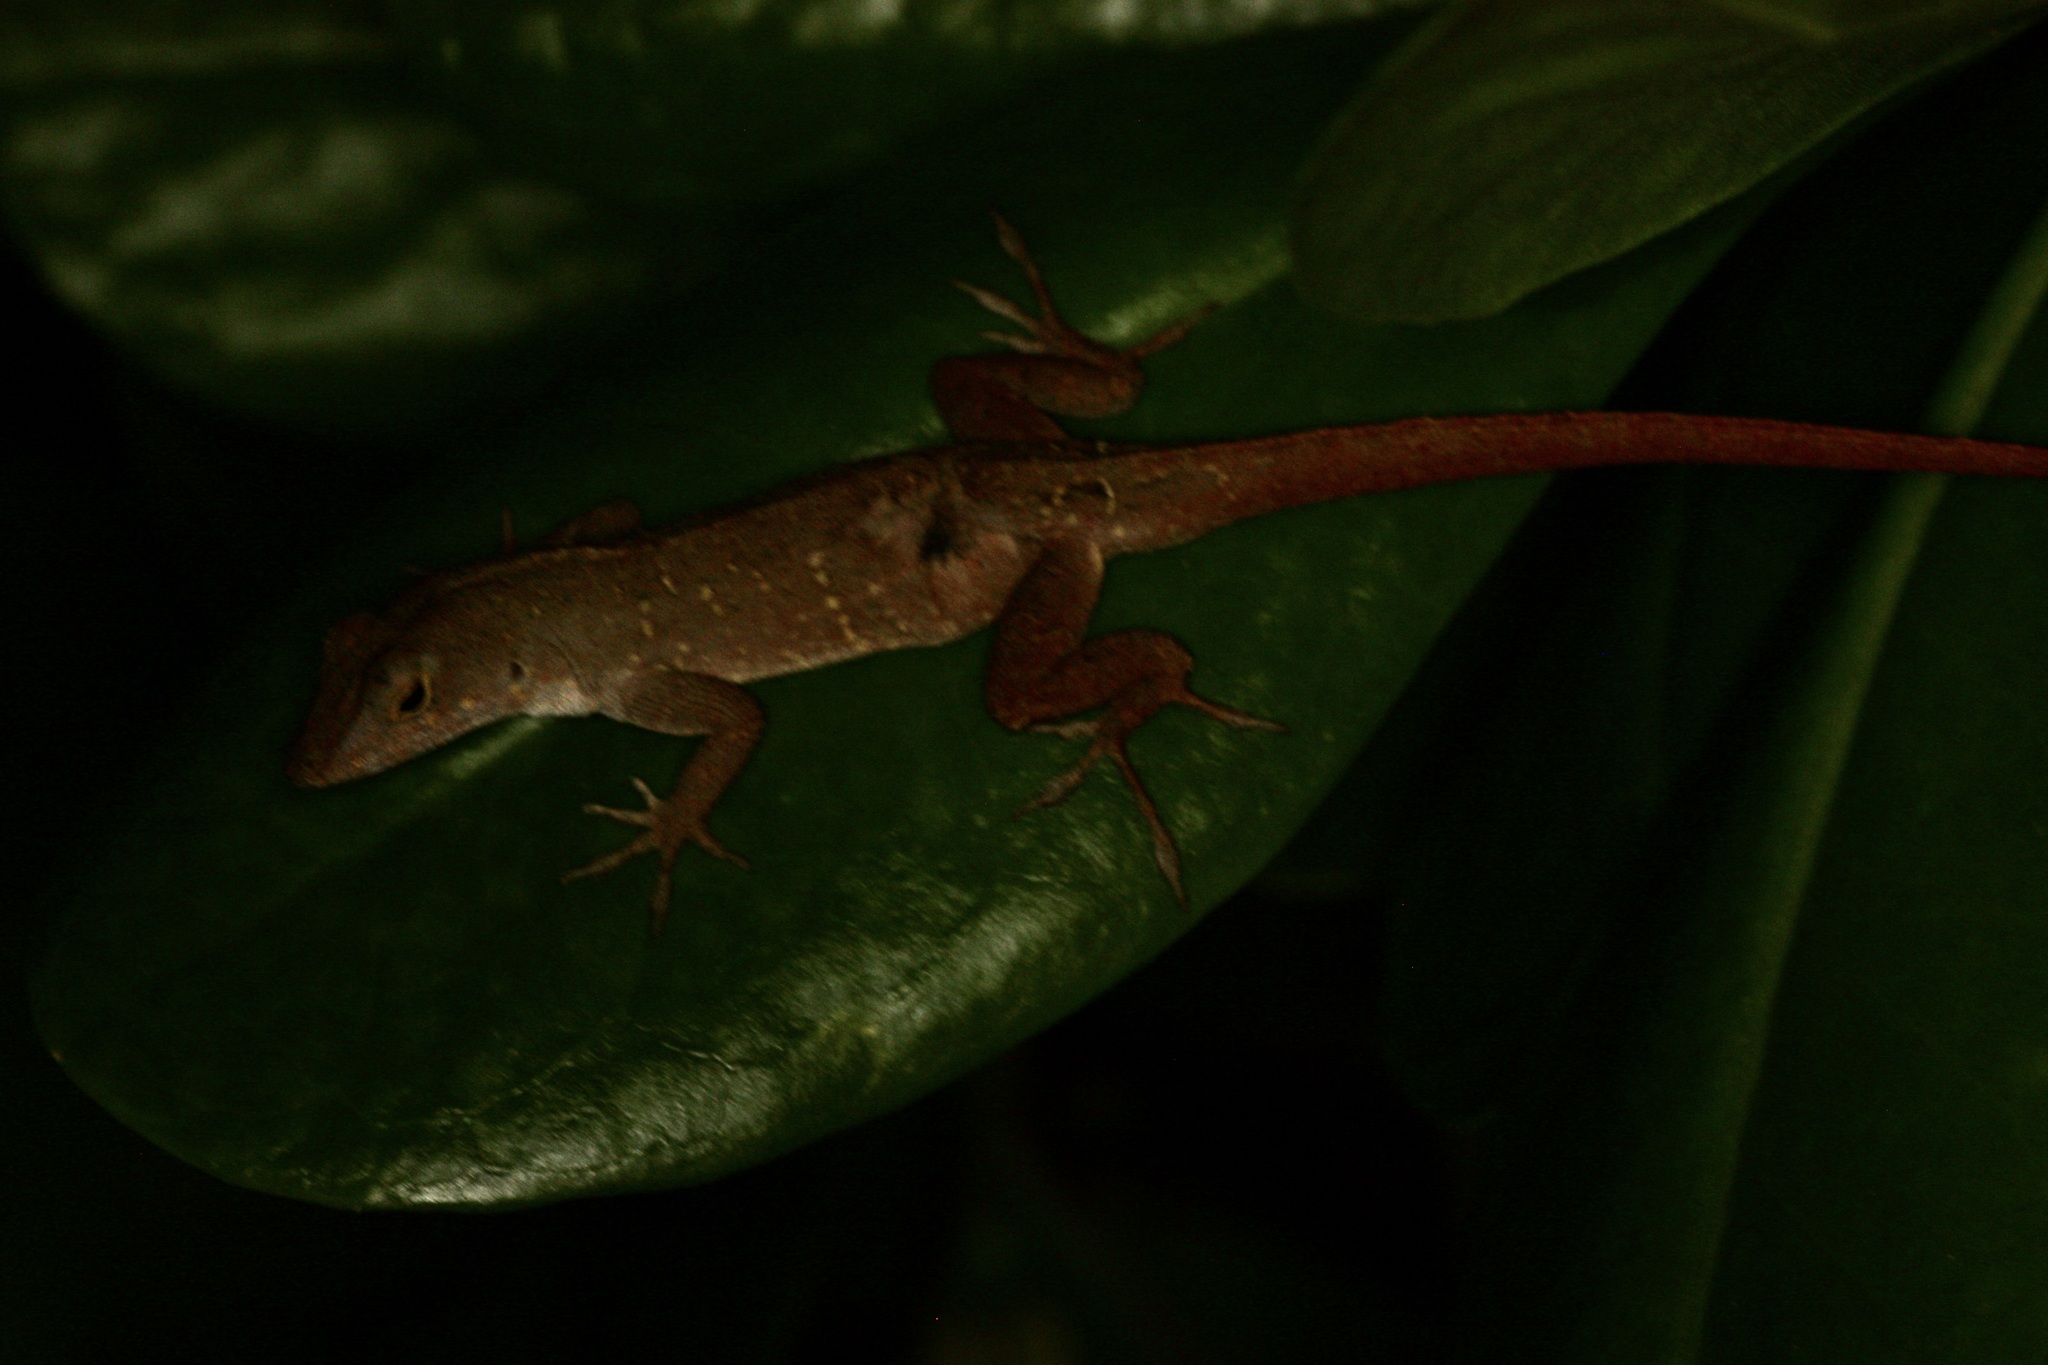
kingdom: Animalia
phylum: Chordata
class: Squamata
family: Dactyloidae
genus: Anolis
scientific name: Anolis sagrei
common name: Brown anole
